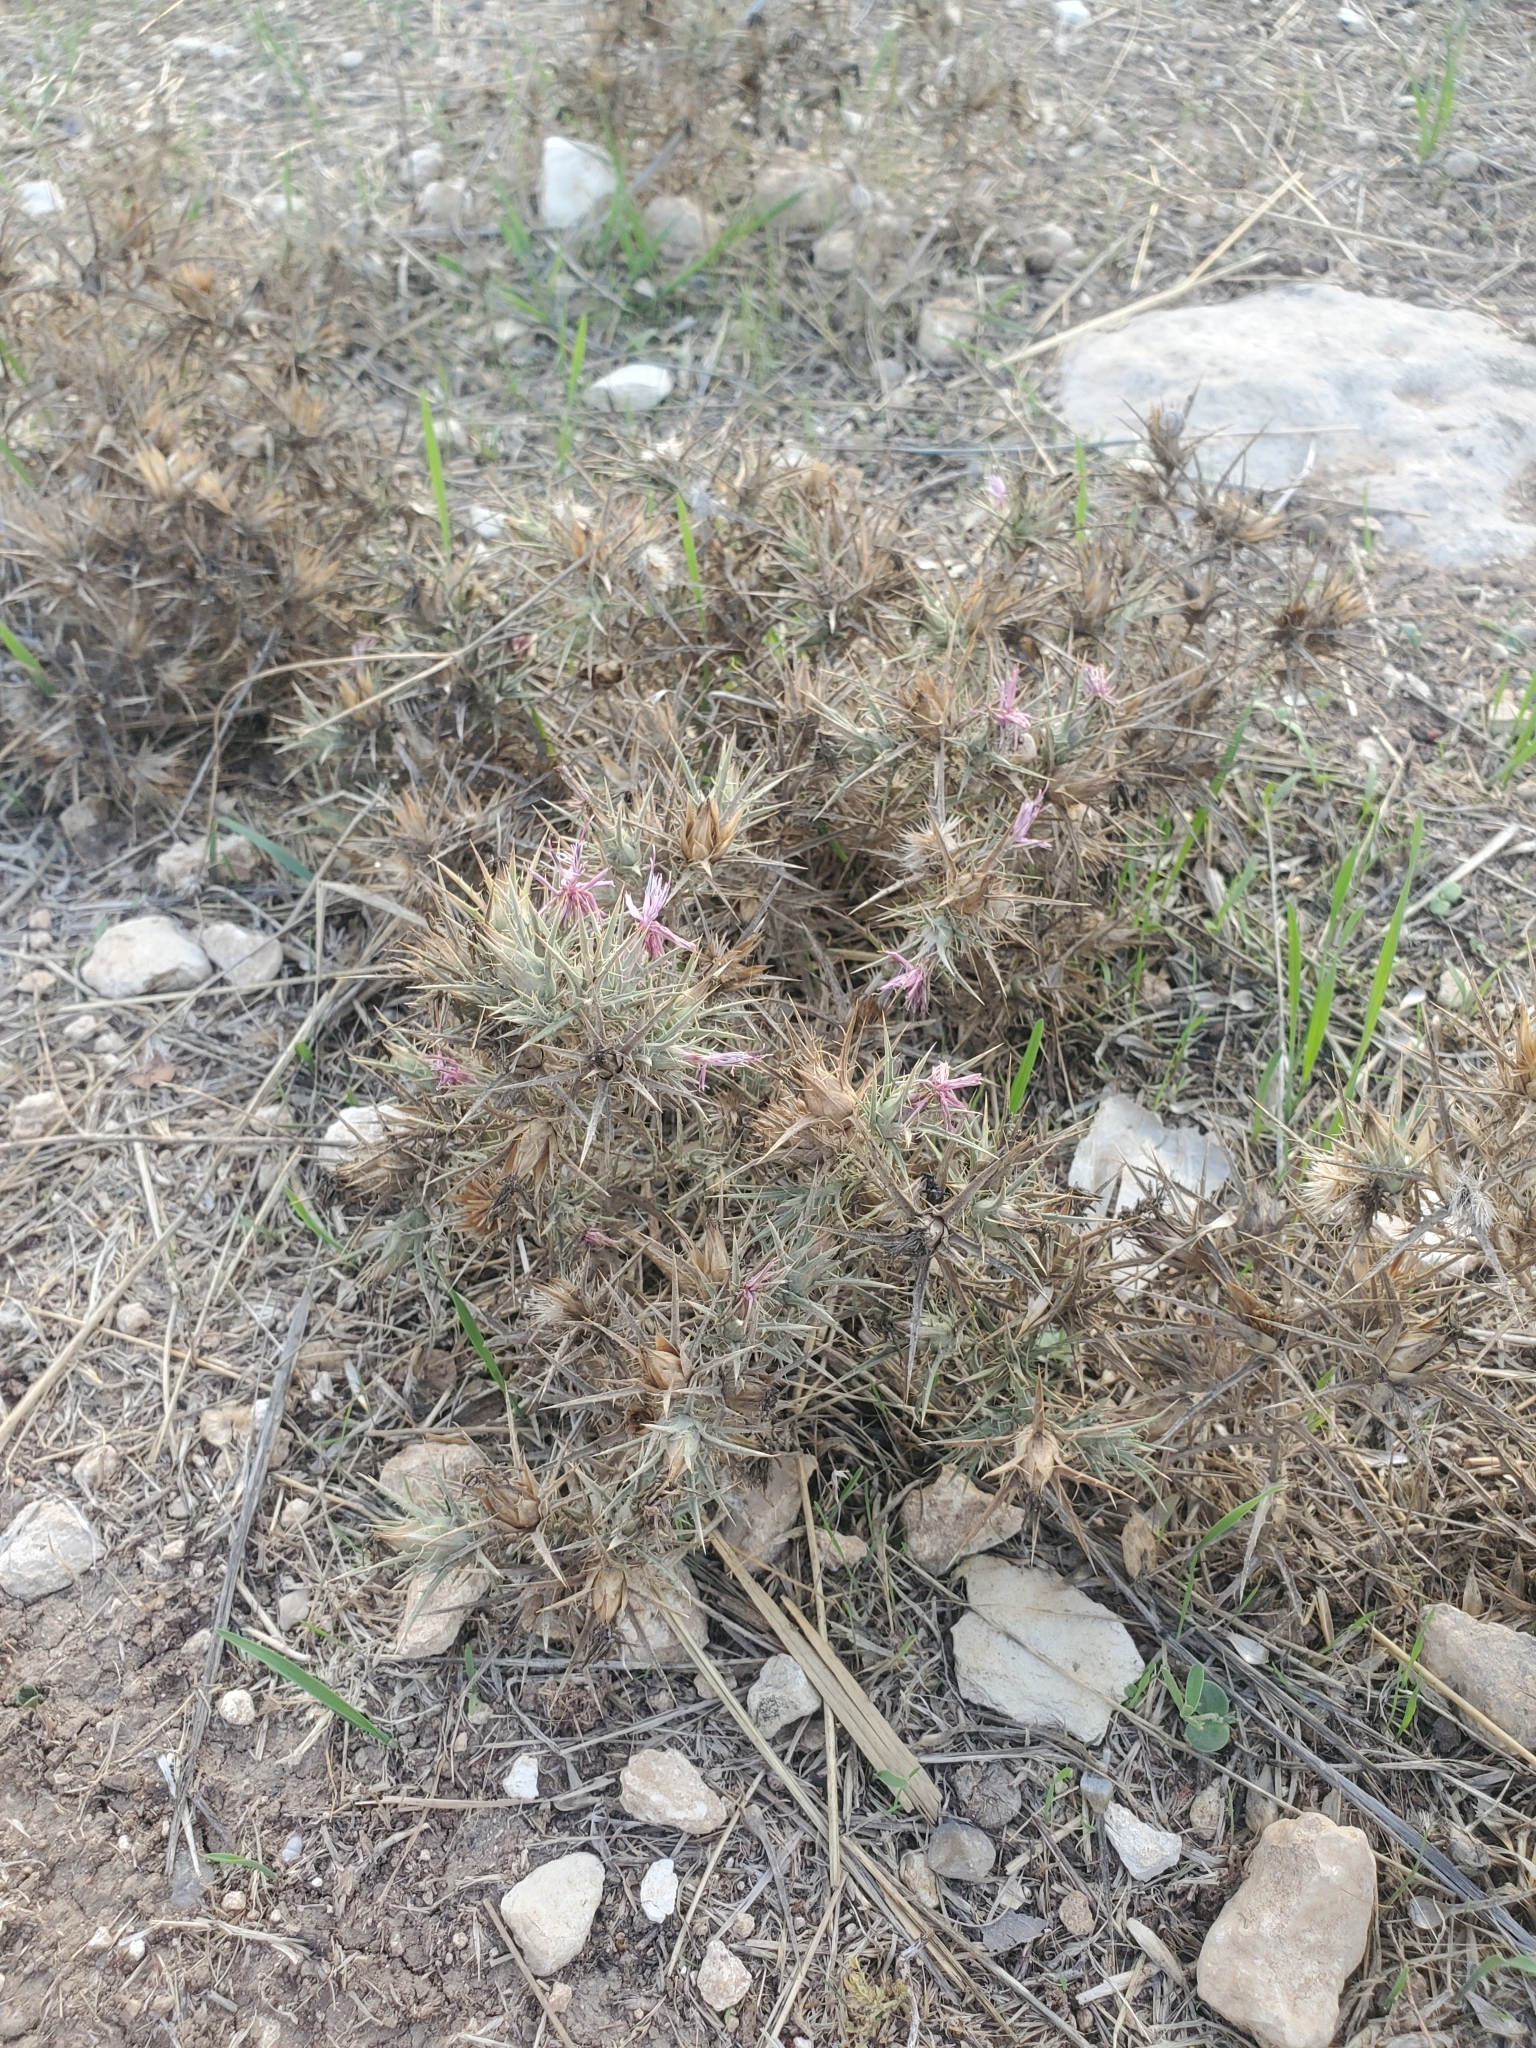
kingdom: Plantae
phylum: Tracheophyta
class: Magnoliopsida
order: Asterales
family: Asteraceae
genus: Carthamus
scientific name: Carthamus glaucus
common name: Mediterranean thistle
